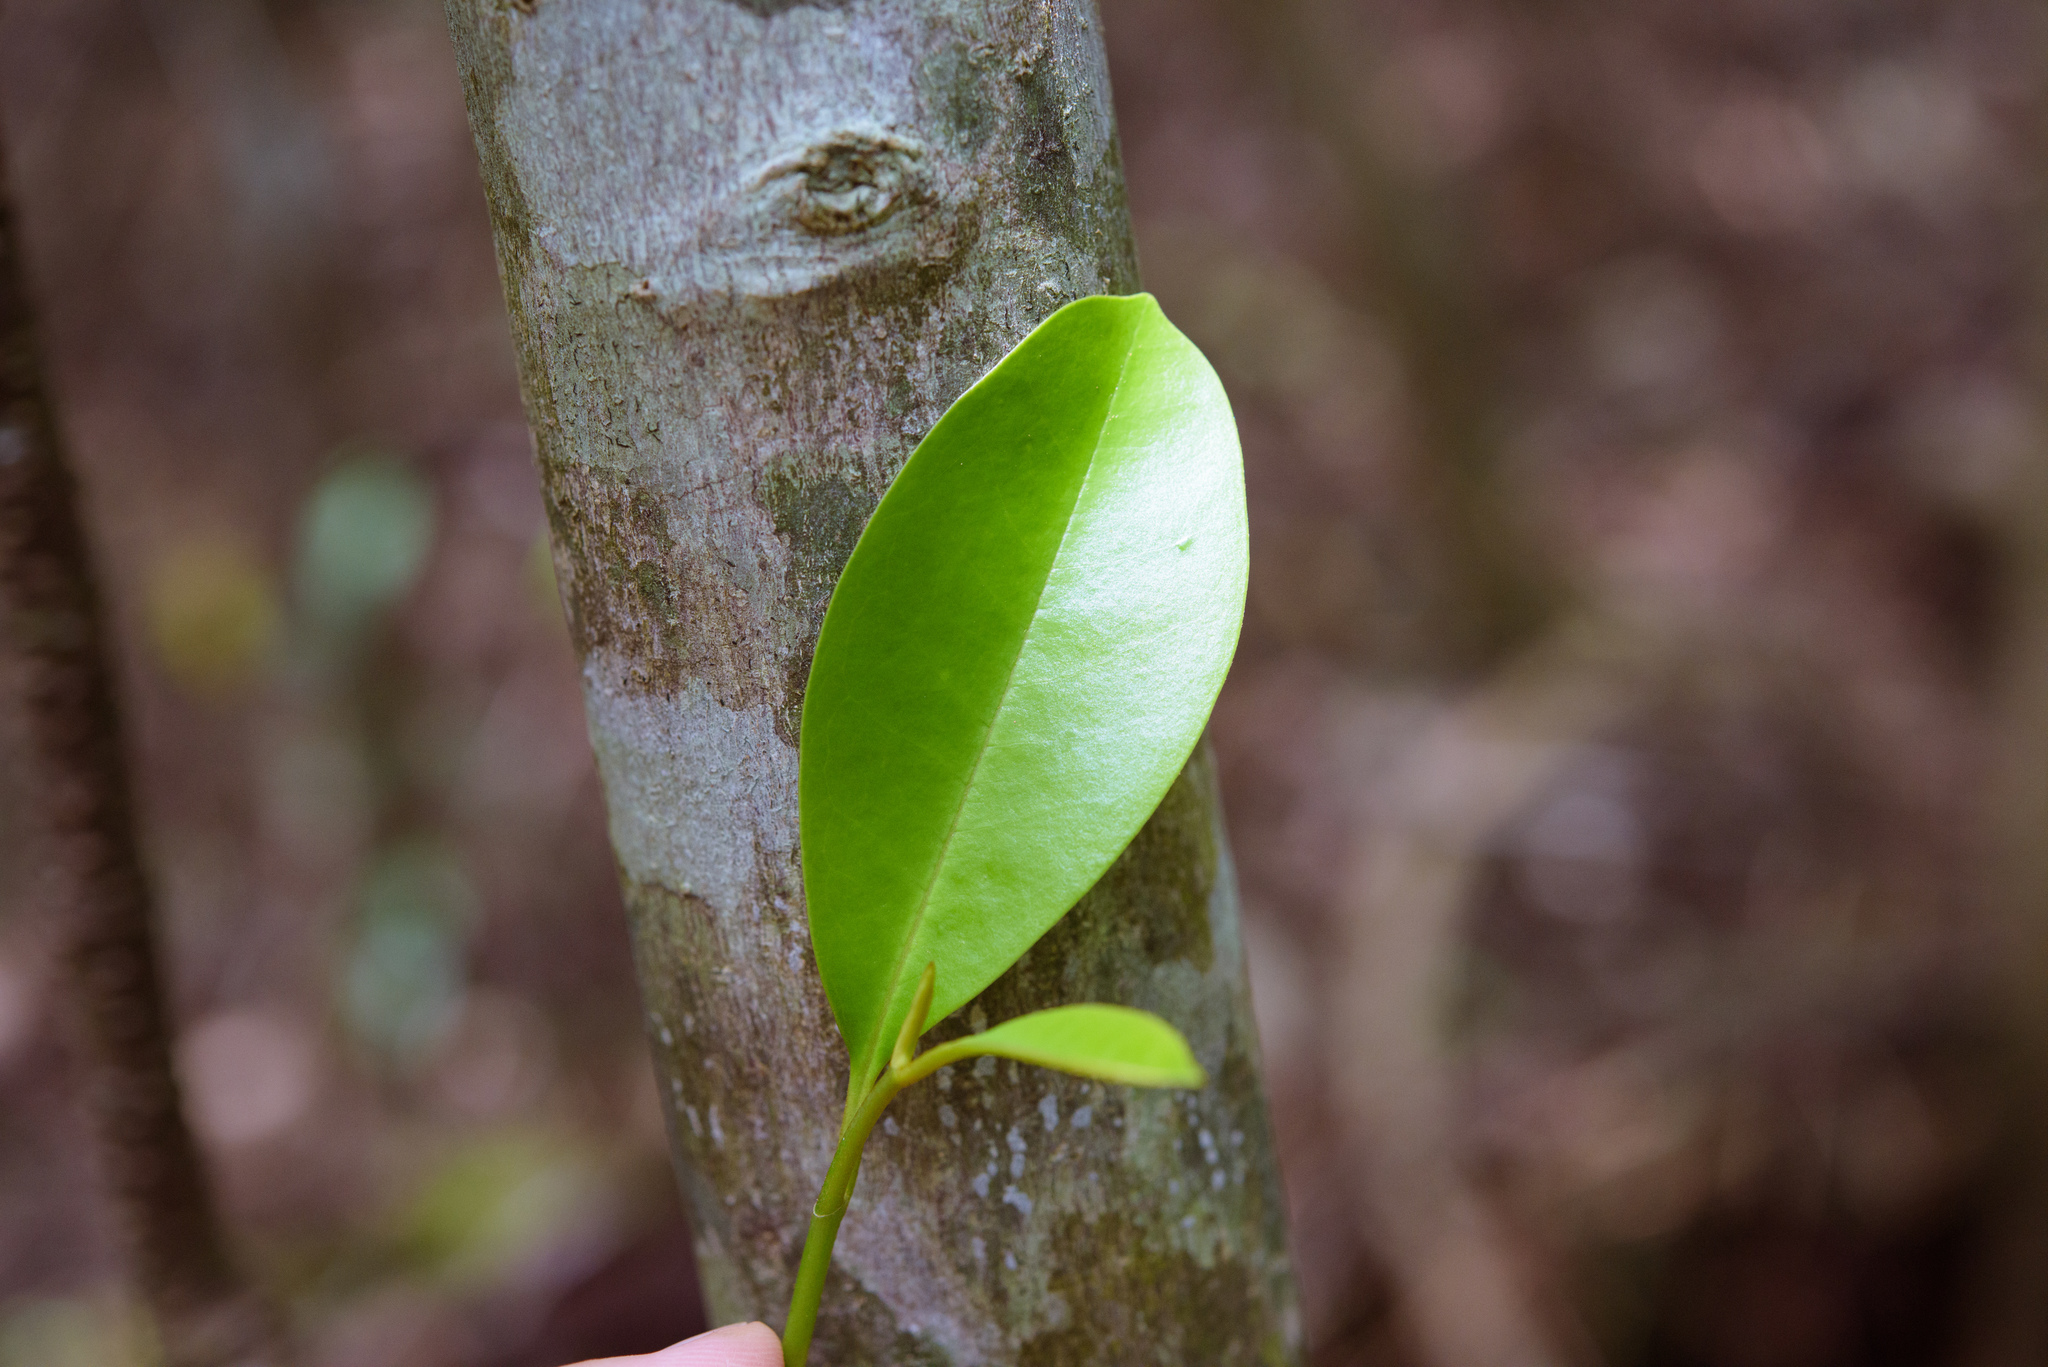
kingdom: Plantae
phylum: Tracheophyta
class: Magnoliopsida
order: Ericales
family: Pentaphylacaceae
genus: Cleyera
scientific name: Cleyera japonica
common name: Sakaki
